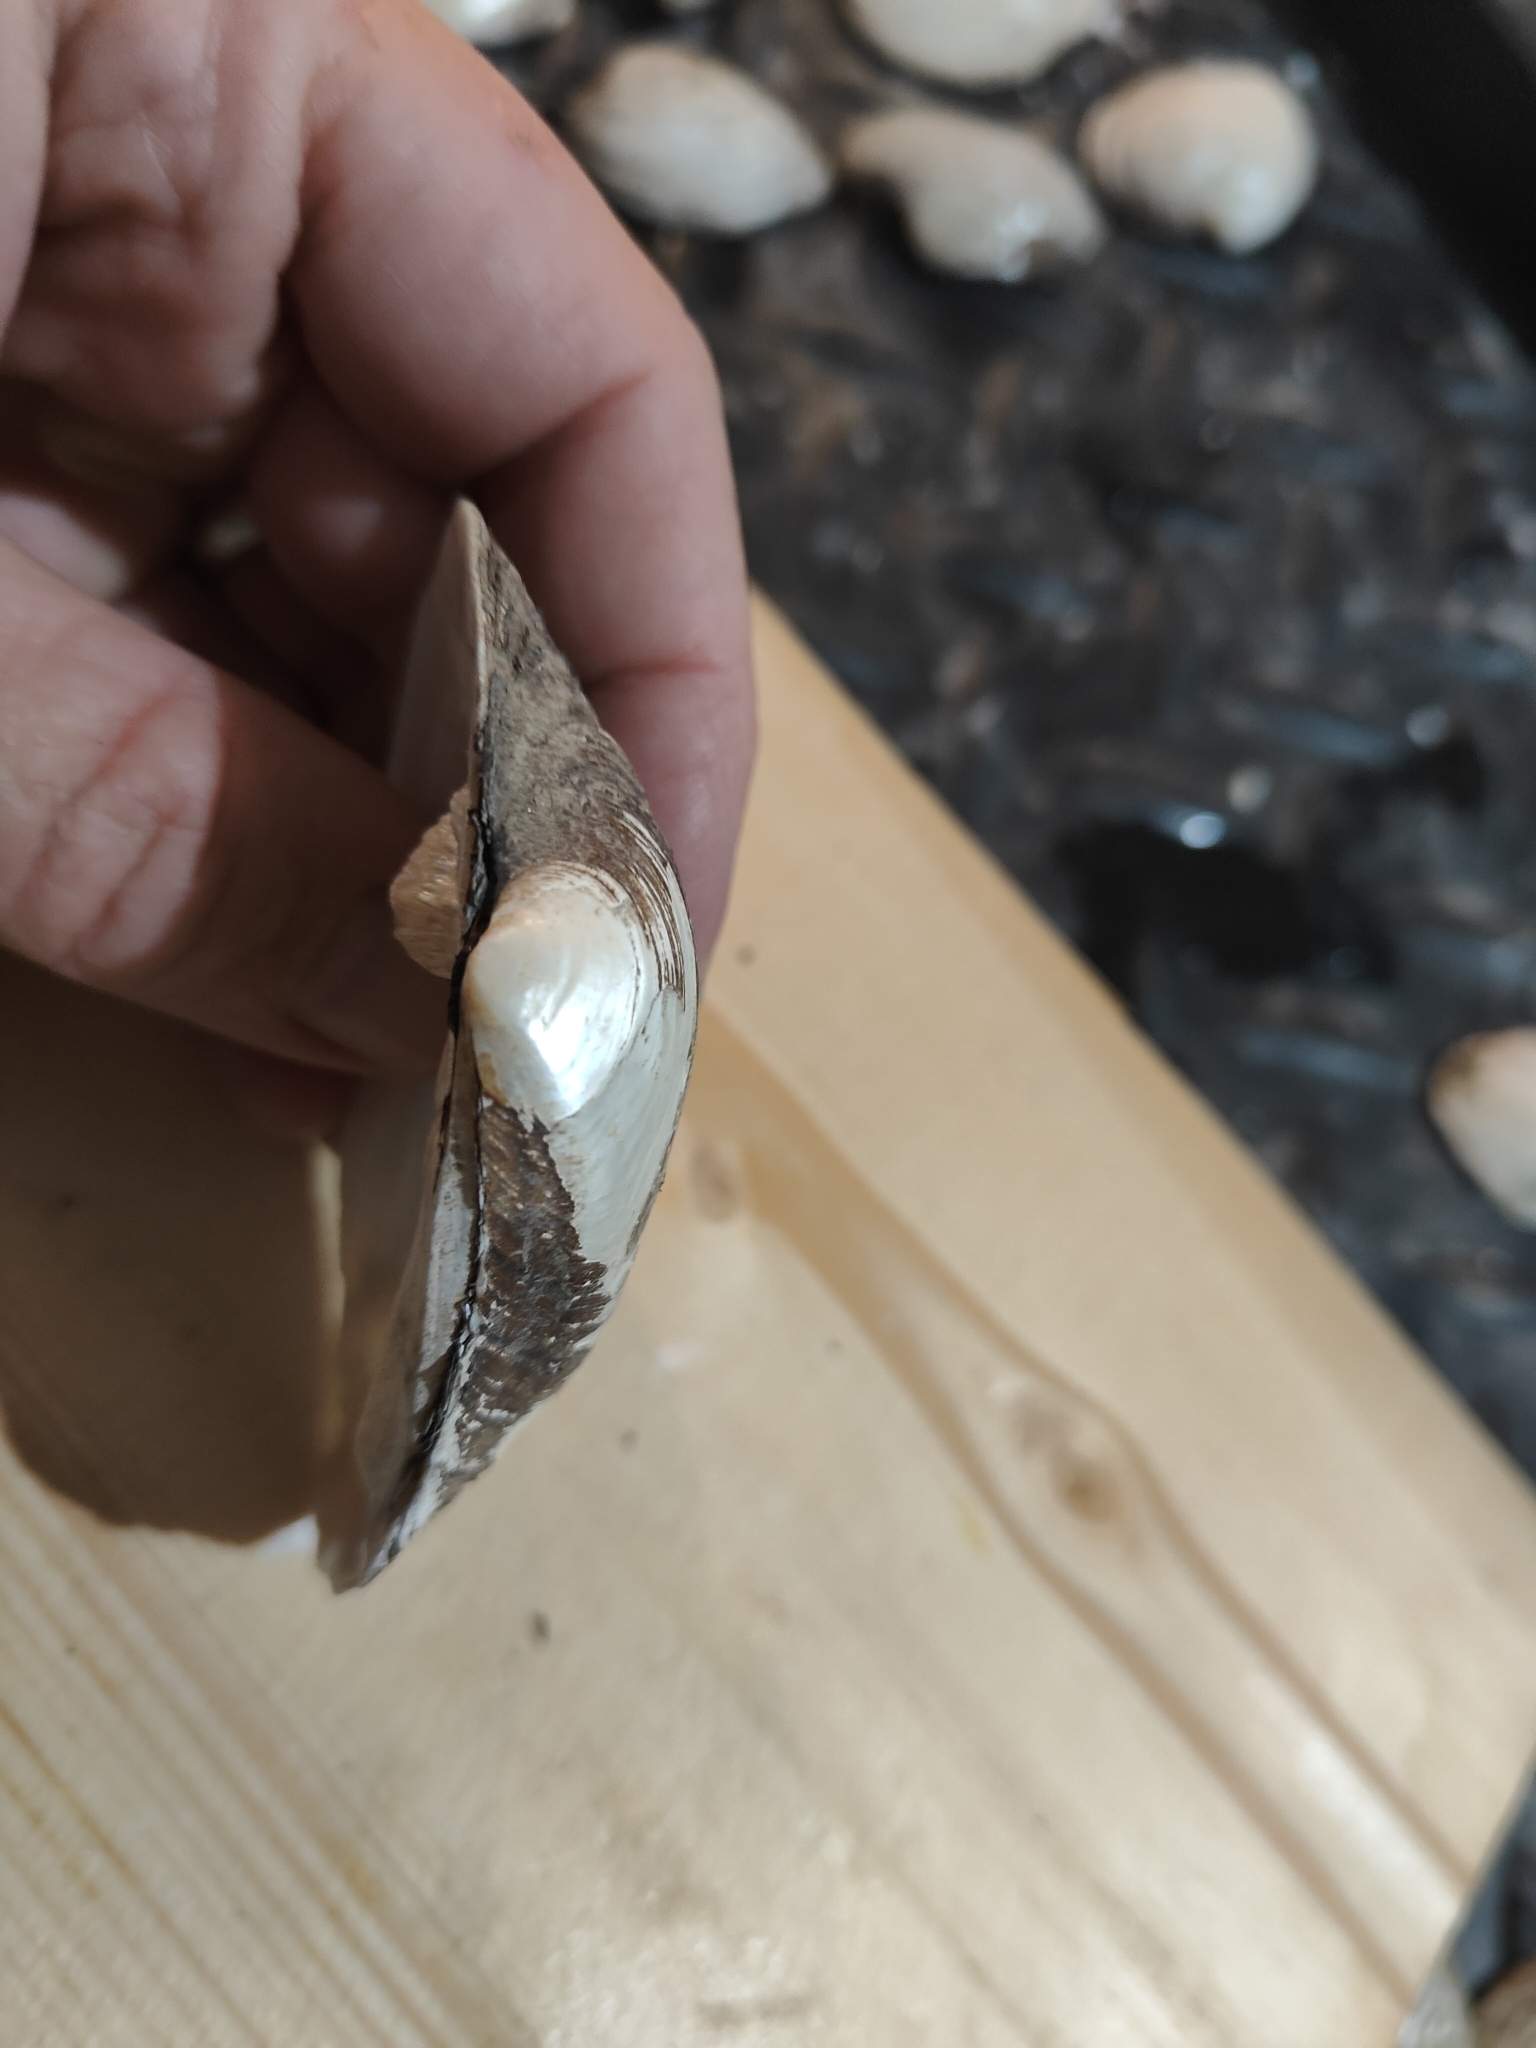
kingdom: Animalia
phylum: Mollusca
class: Bivalvia
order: Unionida
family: Unionidae
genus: Fusconaia
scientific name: Fusconaia flava
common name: Wabash pigtoe
